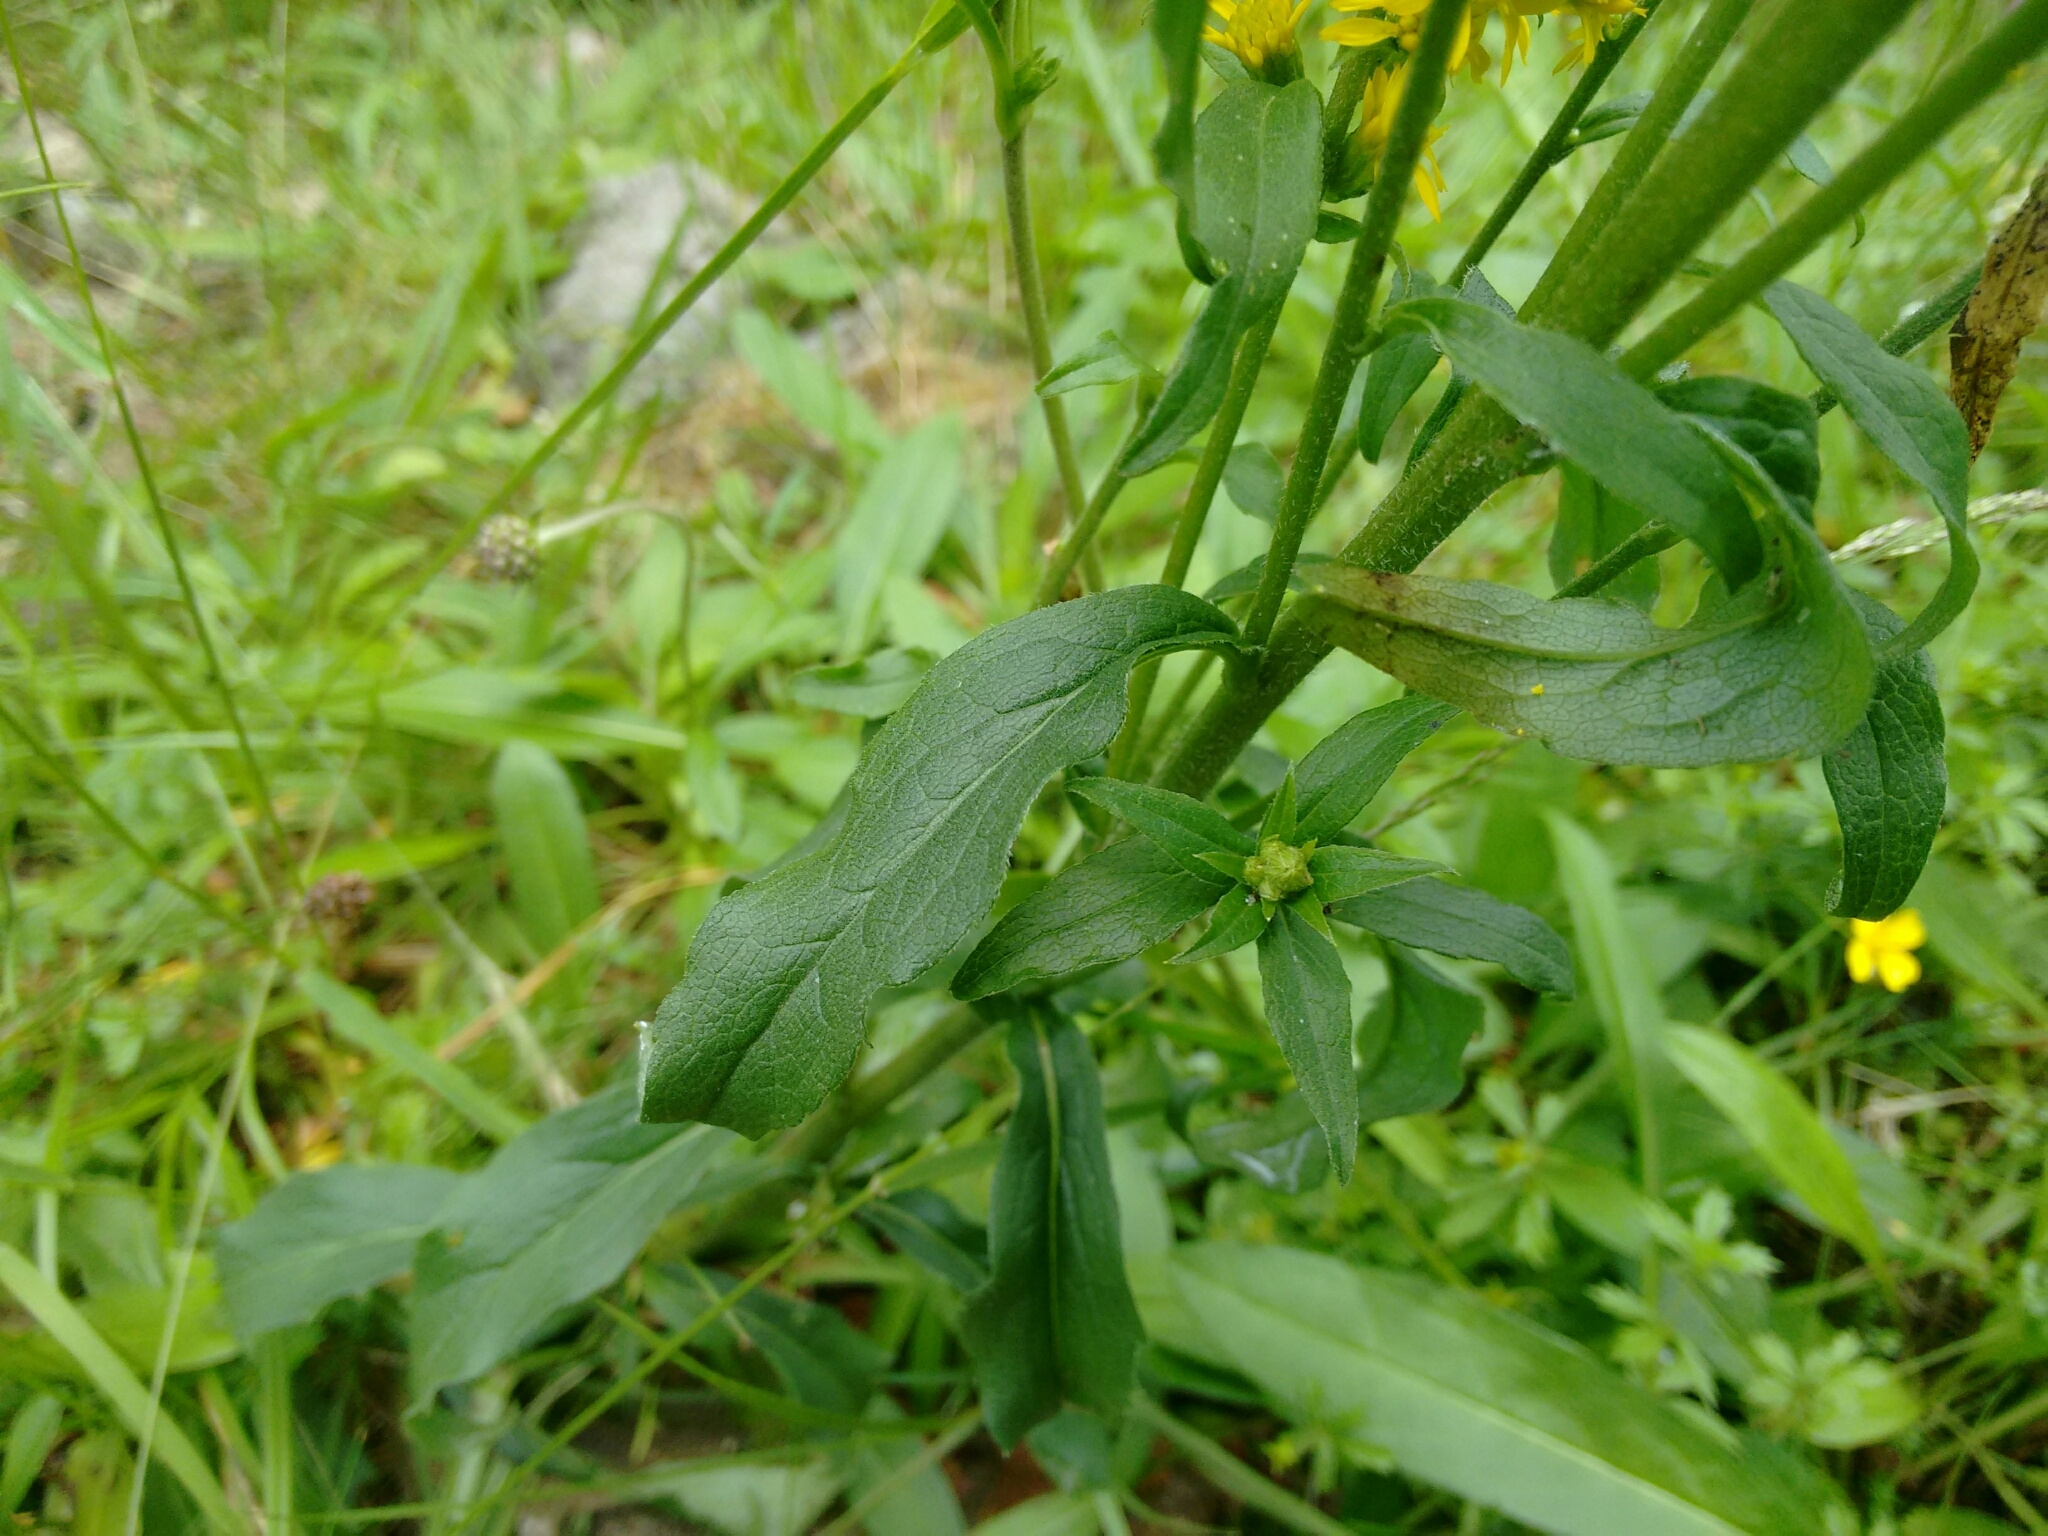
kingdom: Plantae
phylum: Tracheophyta
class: Magnoliopsida
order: Asterales
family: Asteraceae
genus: Solidago
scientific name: Solidago virgaurea
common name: Goldenrod
